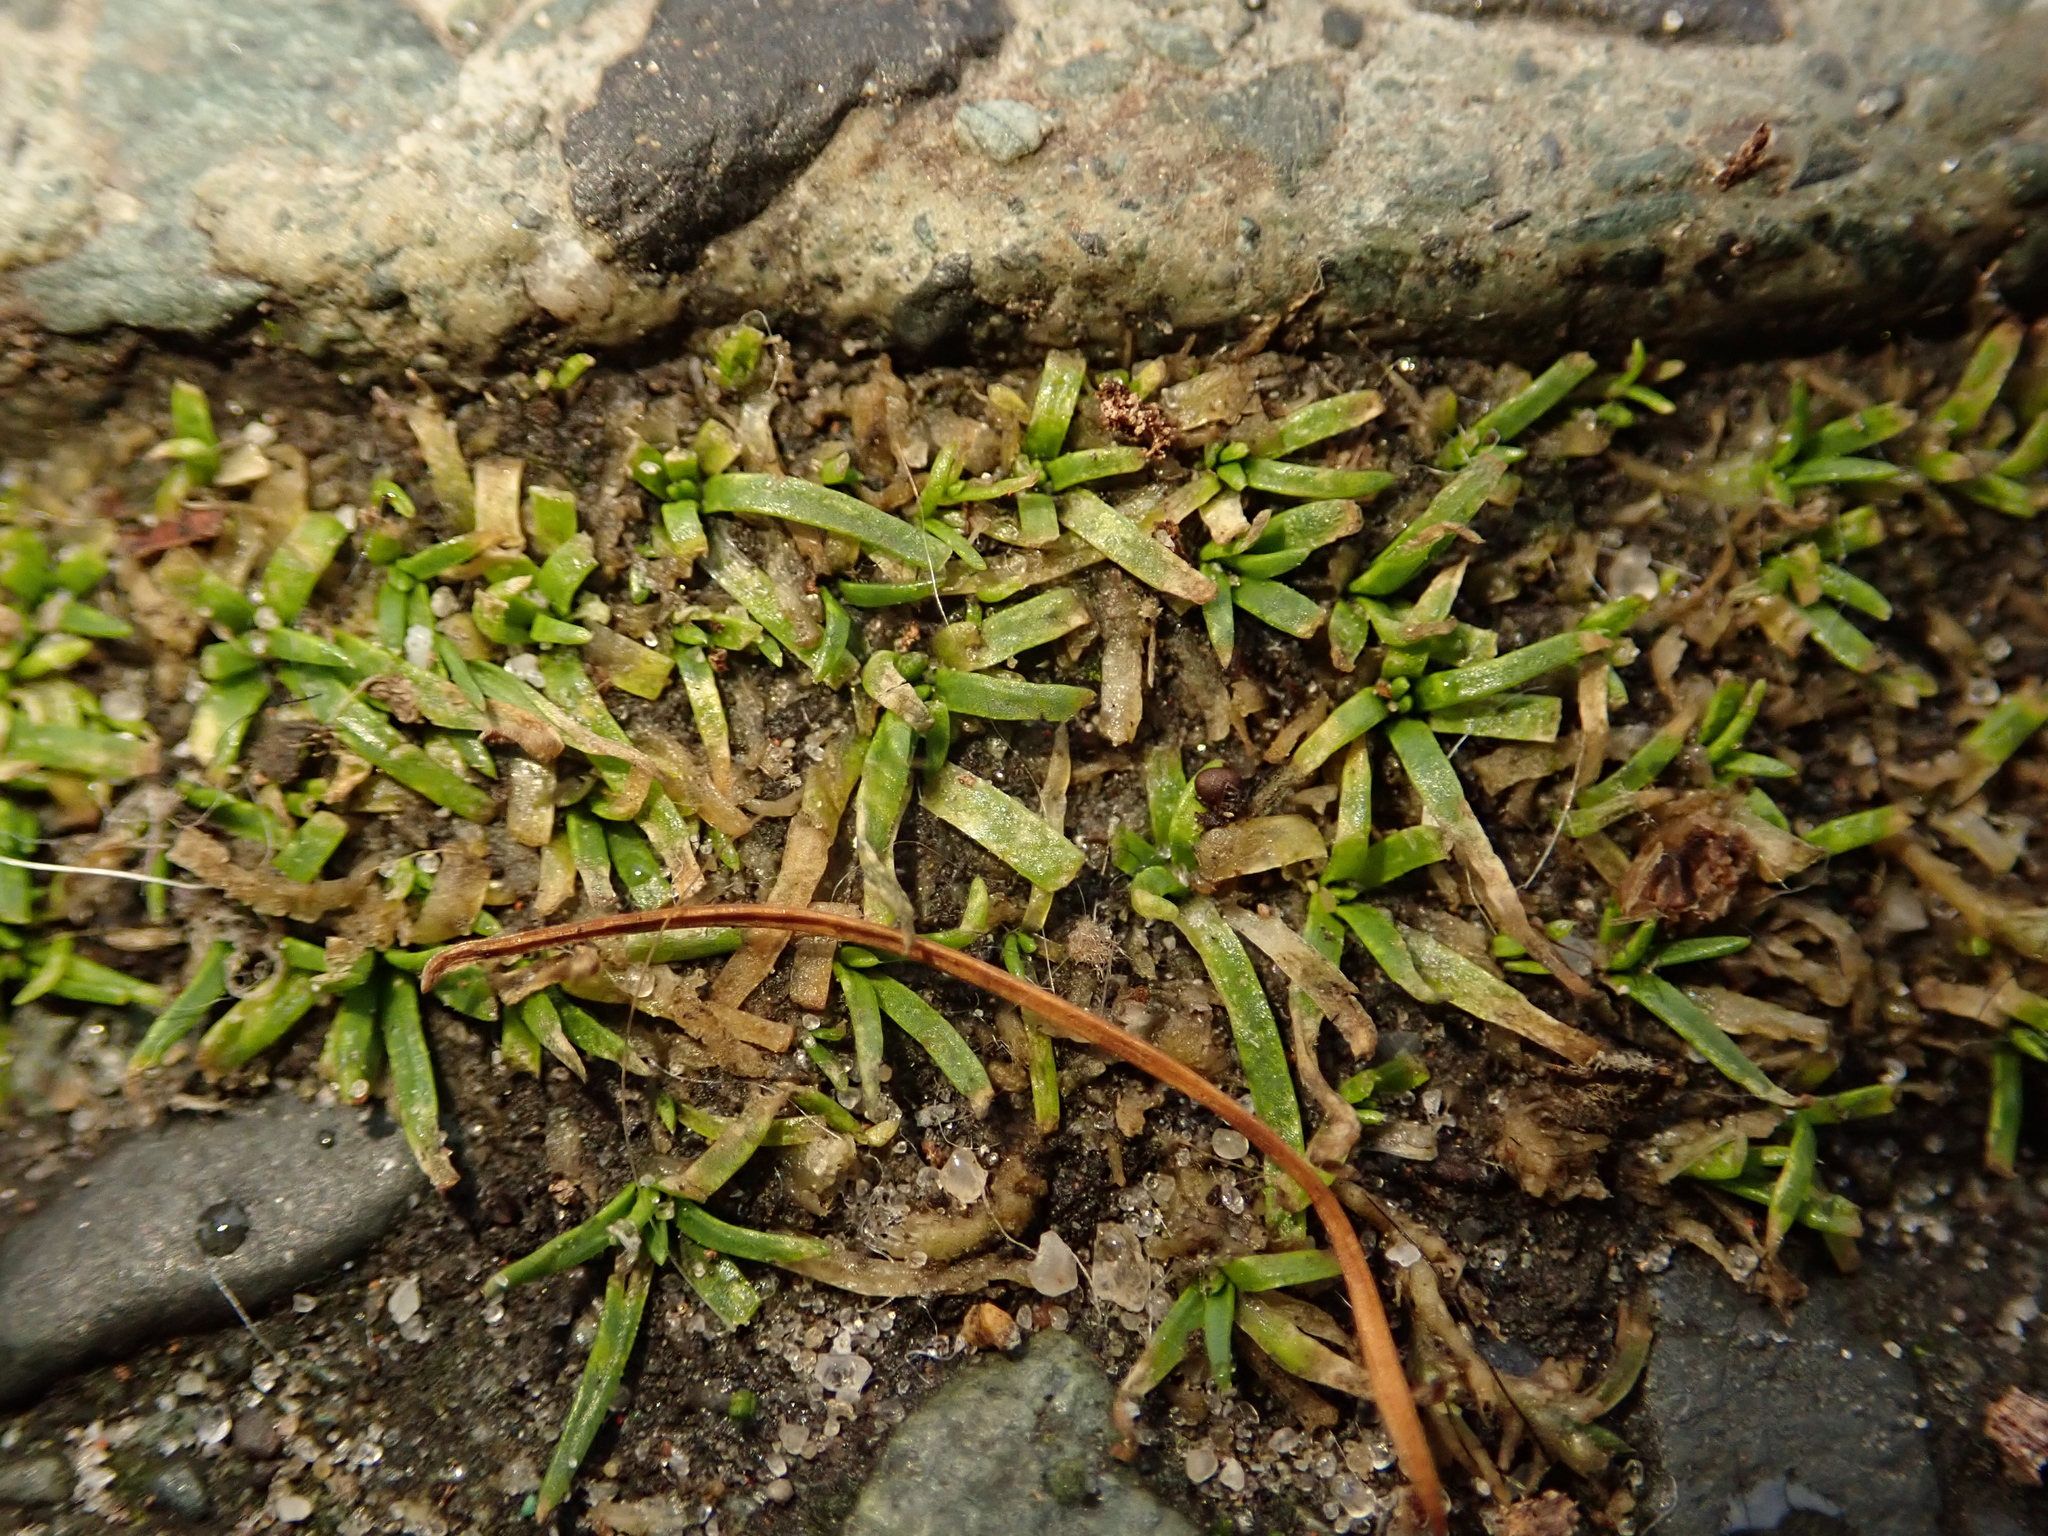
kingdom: Plantae
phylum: Tracheophyta
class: Magnoliopsida
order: Caryophyllales
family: Caryophyllaceae
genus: Sagina
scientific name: Sagina procumbens
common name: Procumbent pearlwort
